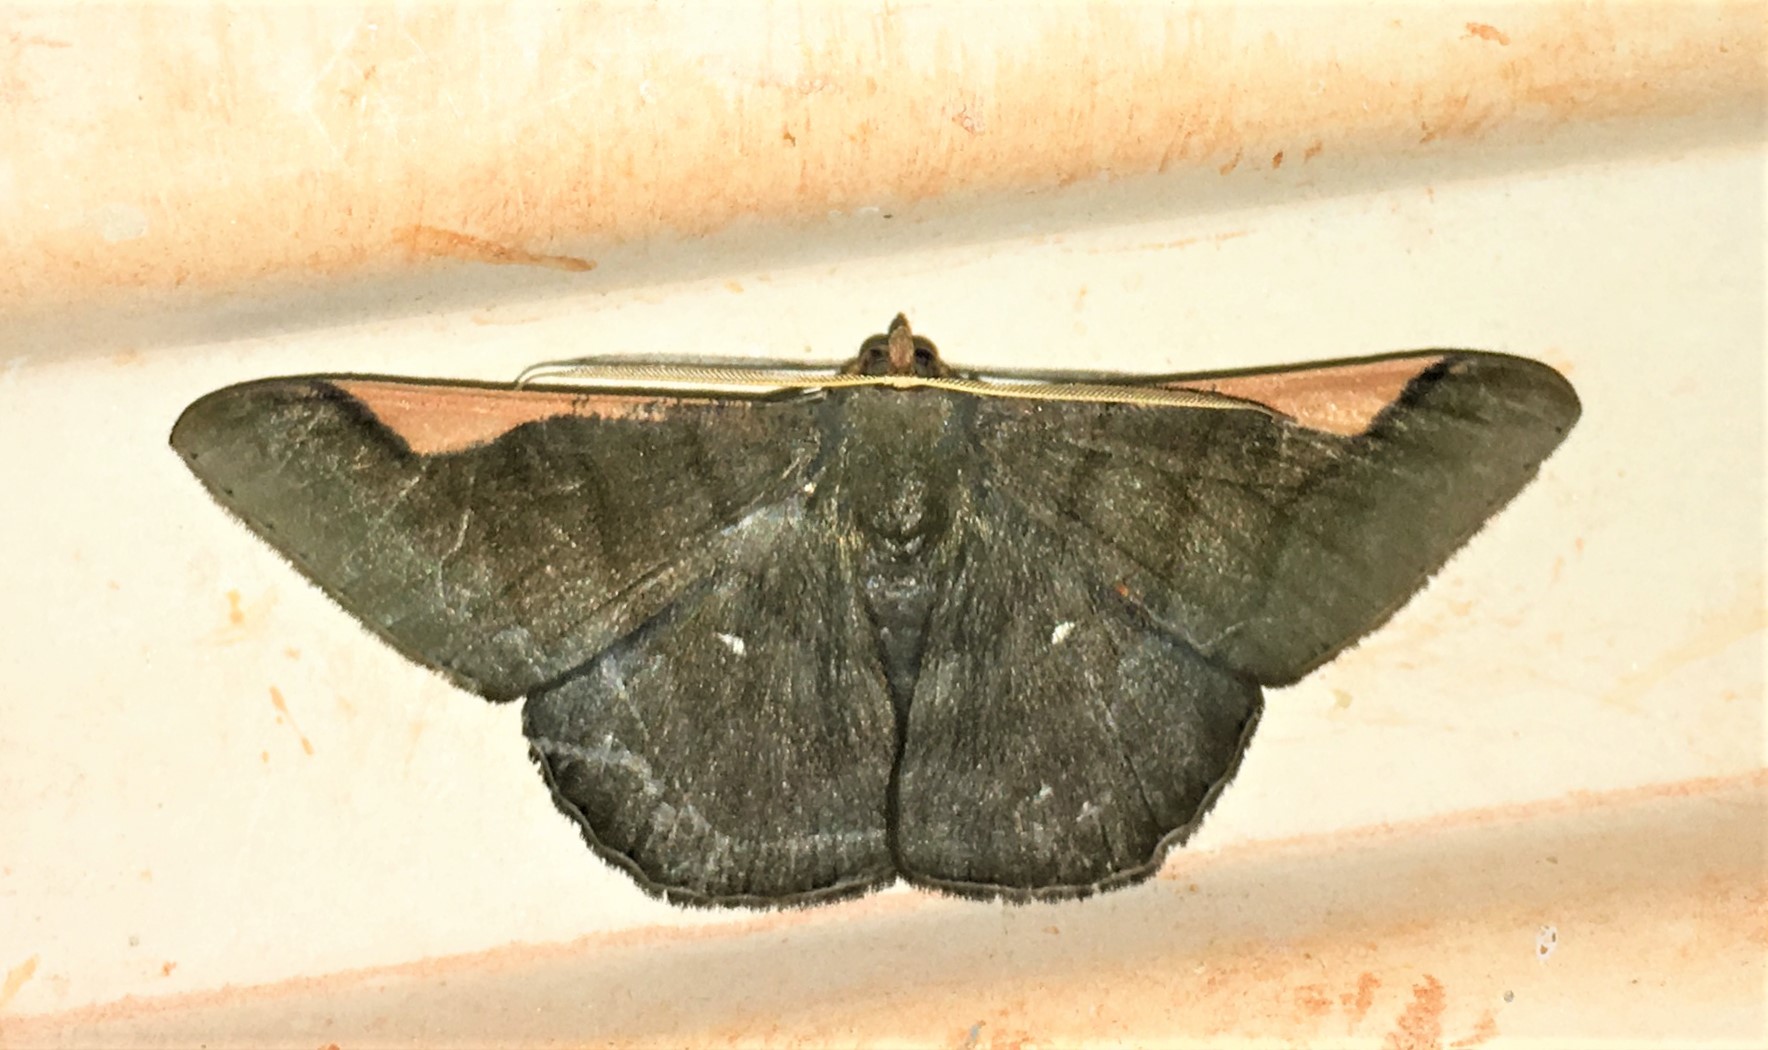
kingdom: Animalia
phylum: Arthropoda
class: Insecta
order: Lepidoptera
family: Geometridae
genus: Sphacelodes
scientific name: Sphacelodes vulneraria
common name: Looper moth
